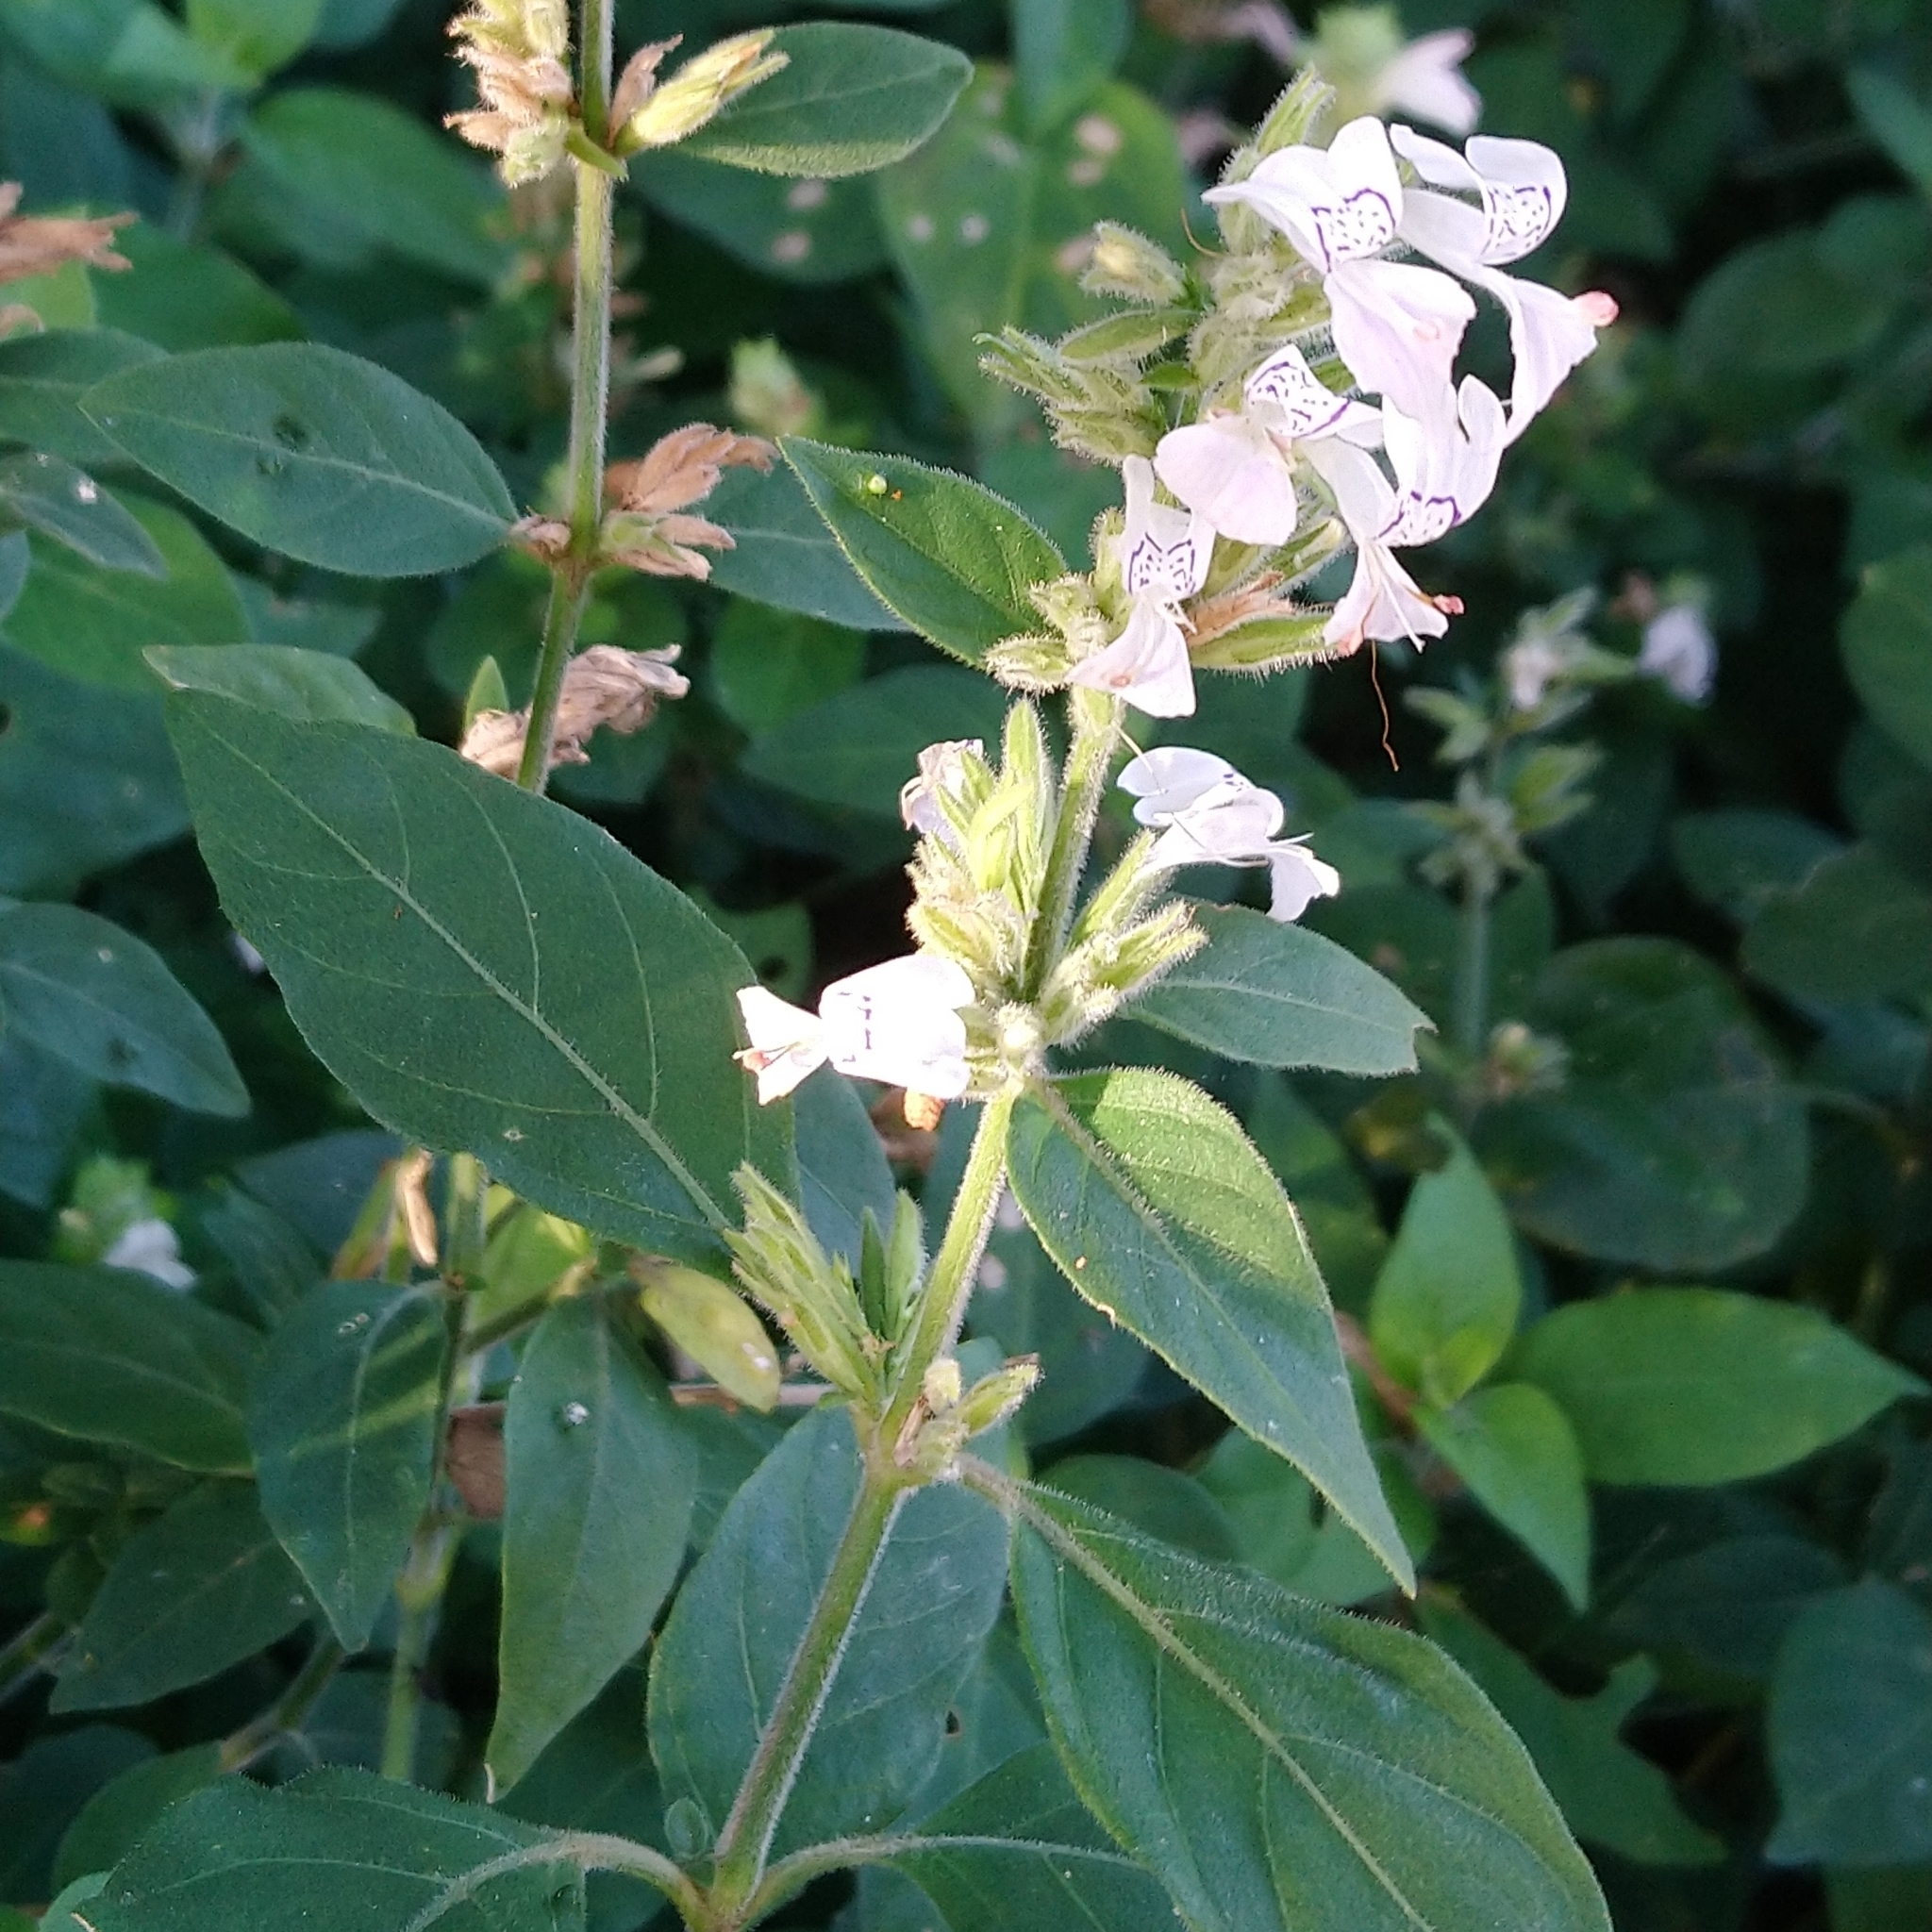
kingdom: Plantae
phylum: Tracheophyta
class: Magnoliopsida
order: Lamiales
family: Acanthaceae
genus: Hypoestes
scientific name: Hypoestes forskaolii
